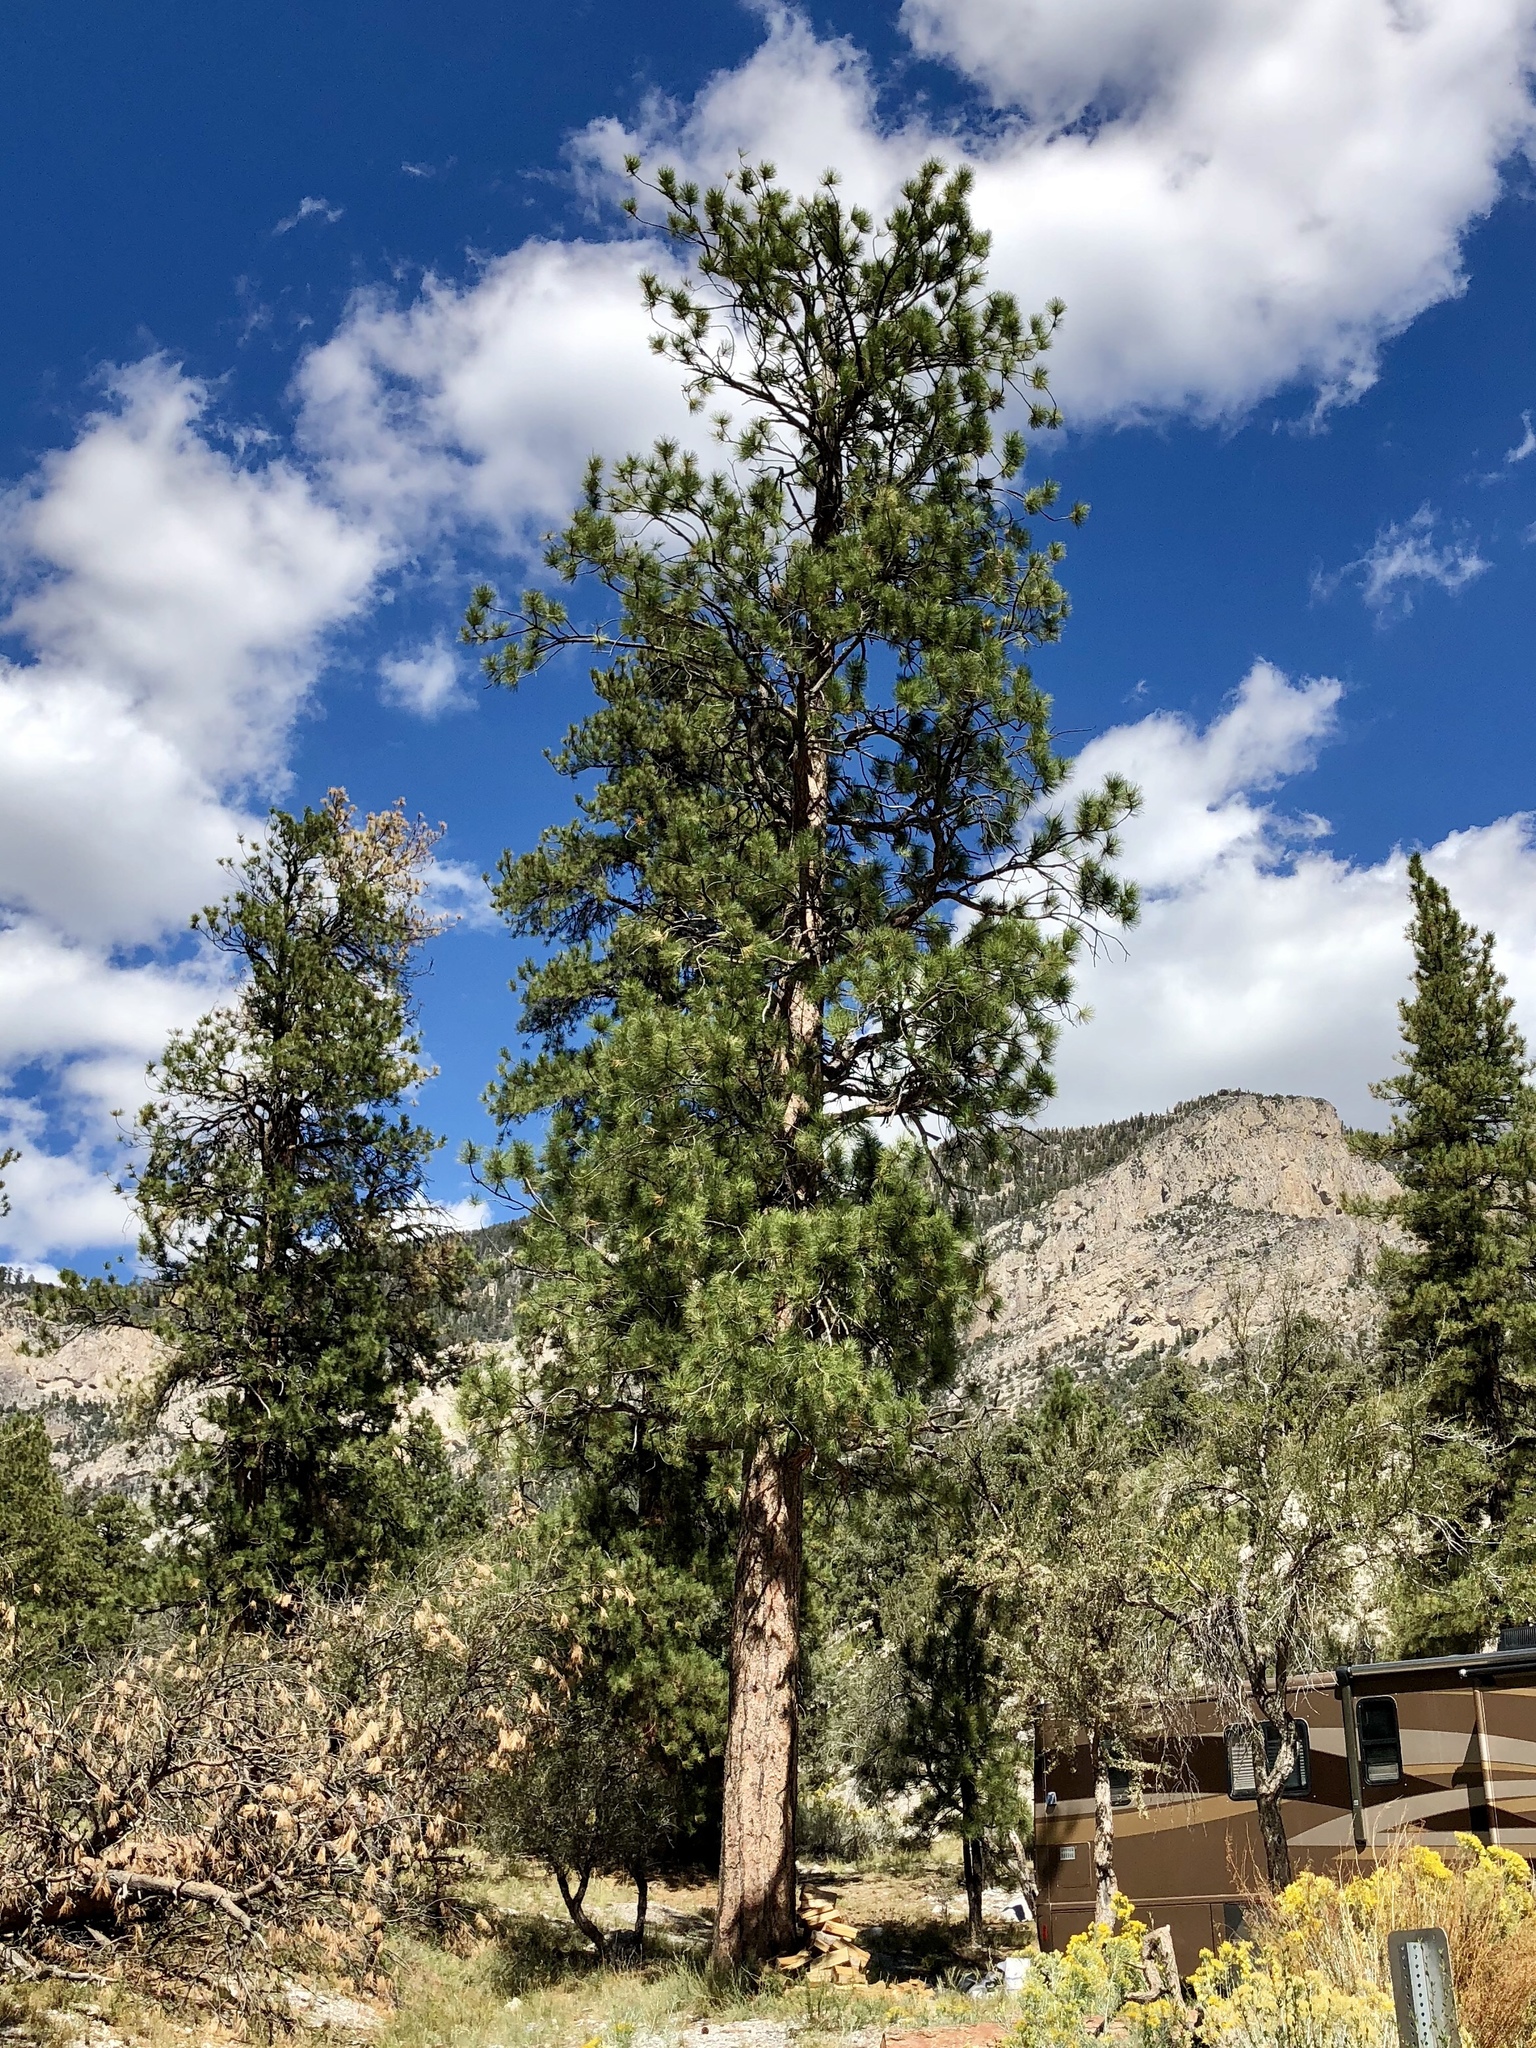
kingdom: Plantae
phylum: Tracheophyta
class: Pinopsida
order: Pinales
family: Pinaceae
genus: Pinus
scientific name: Pinus ponderosa
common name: Western yellow-pine
